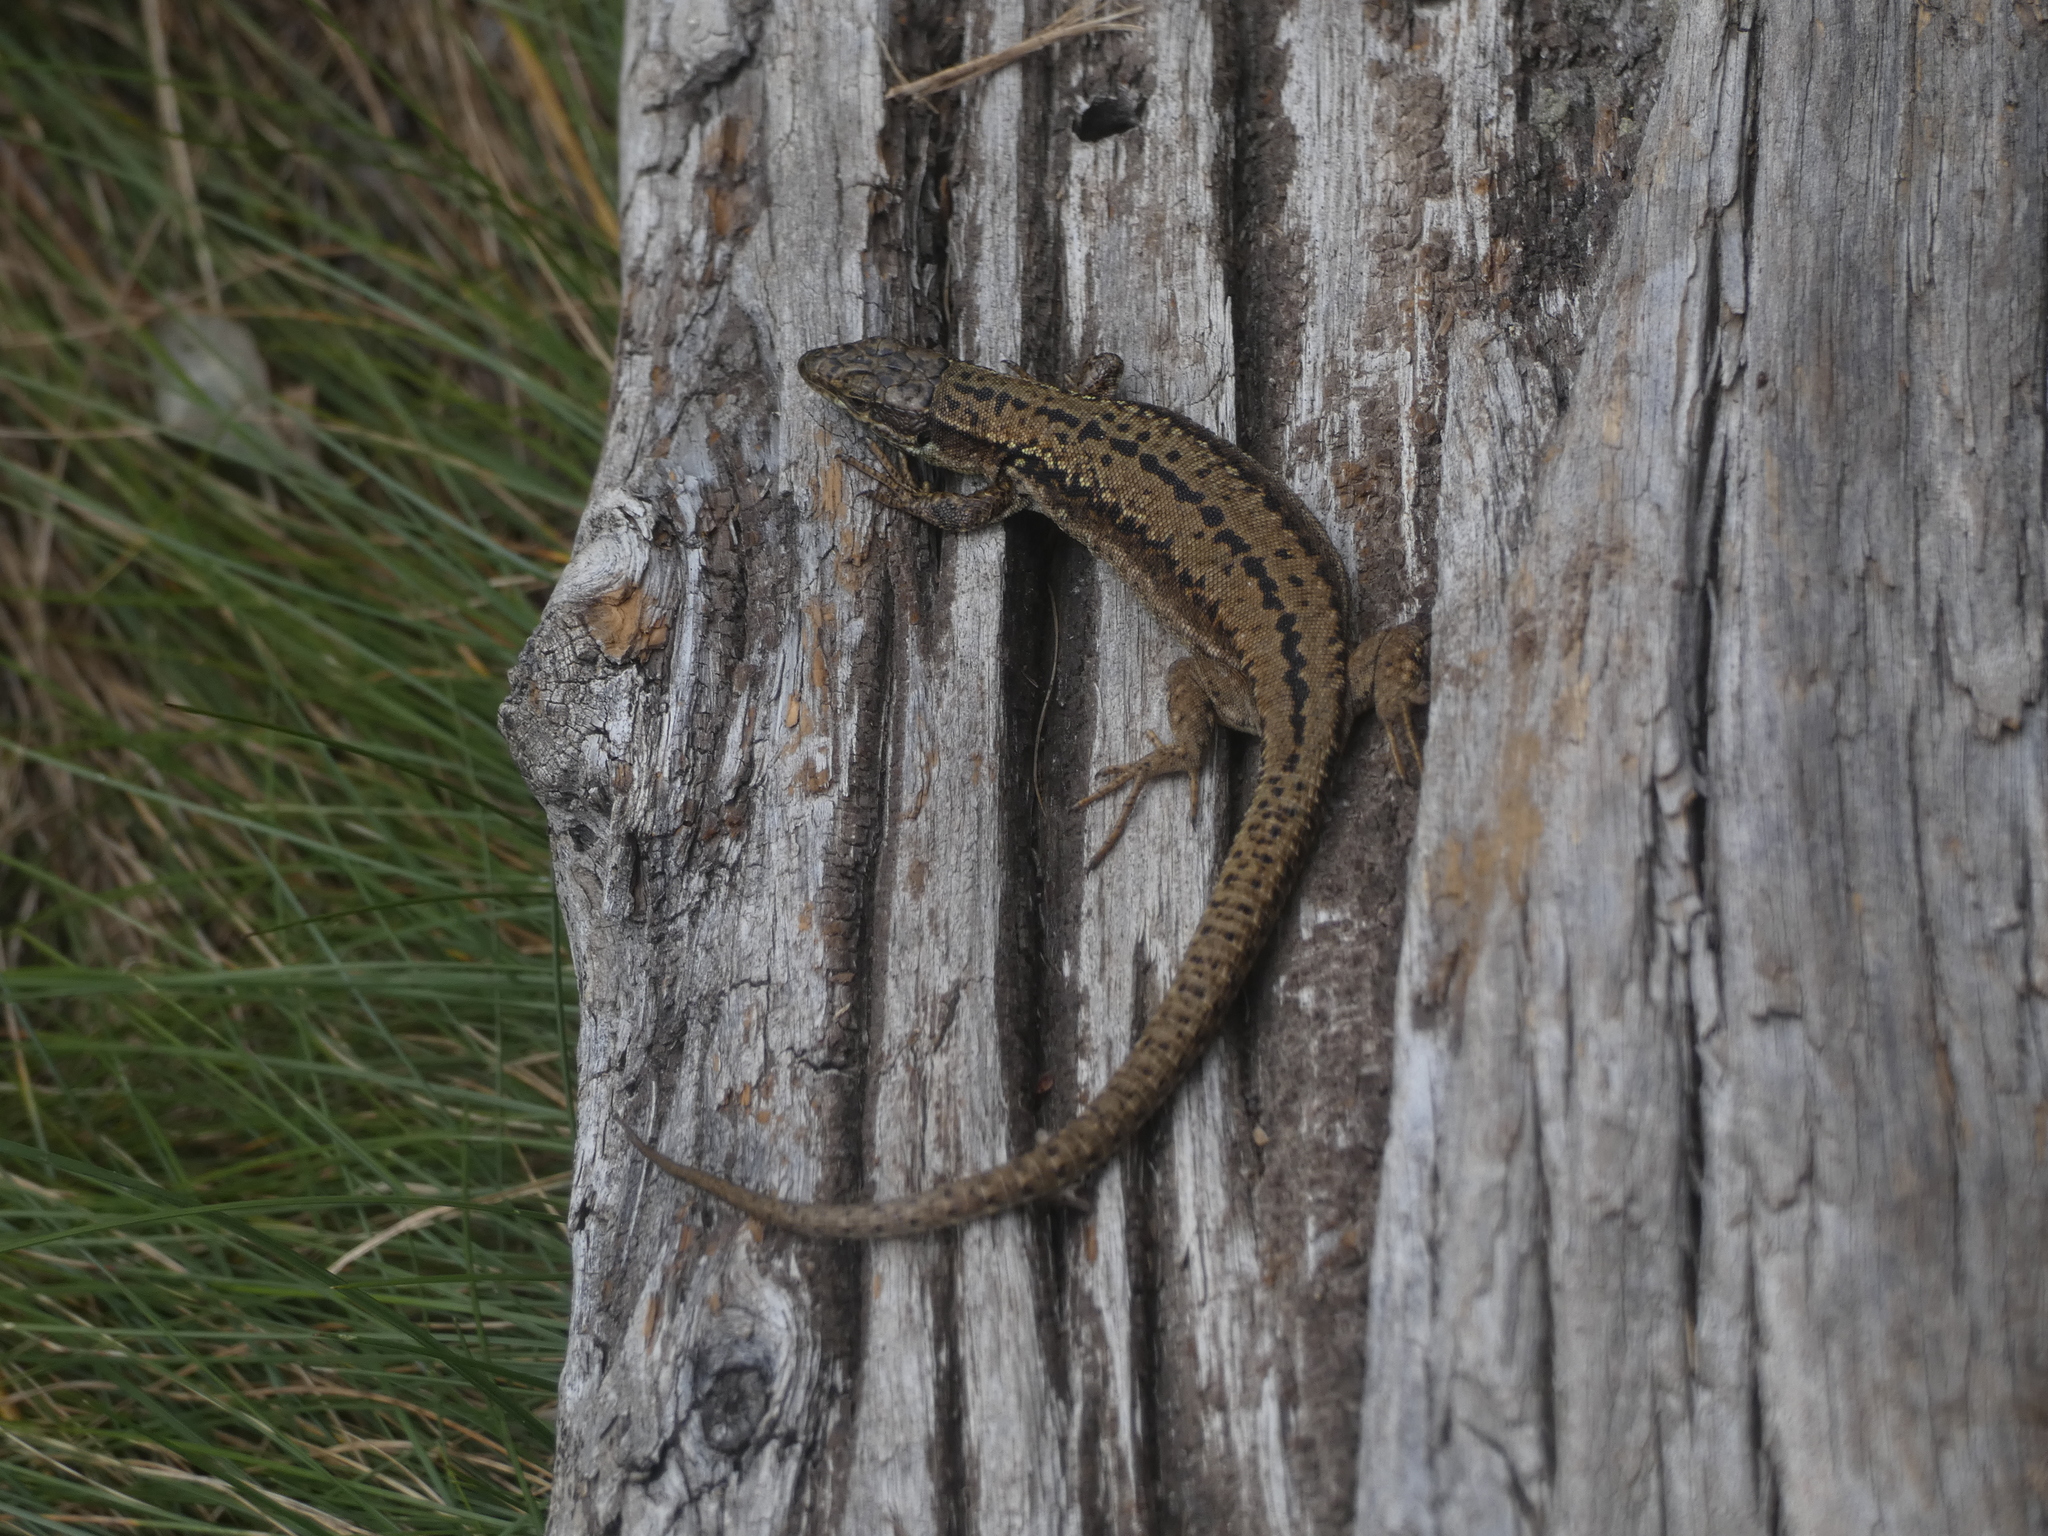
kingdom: Animalia
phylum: Chordata
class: Squamata
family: Lacertidae
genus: Podarcis
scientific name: Podarcis muralis
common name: Common wall lizard
